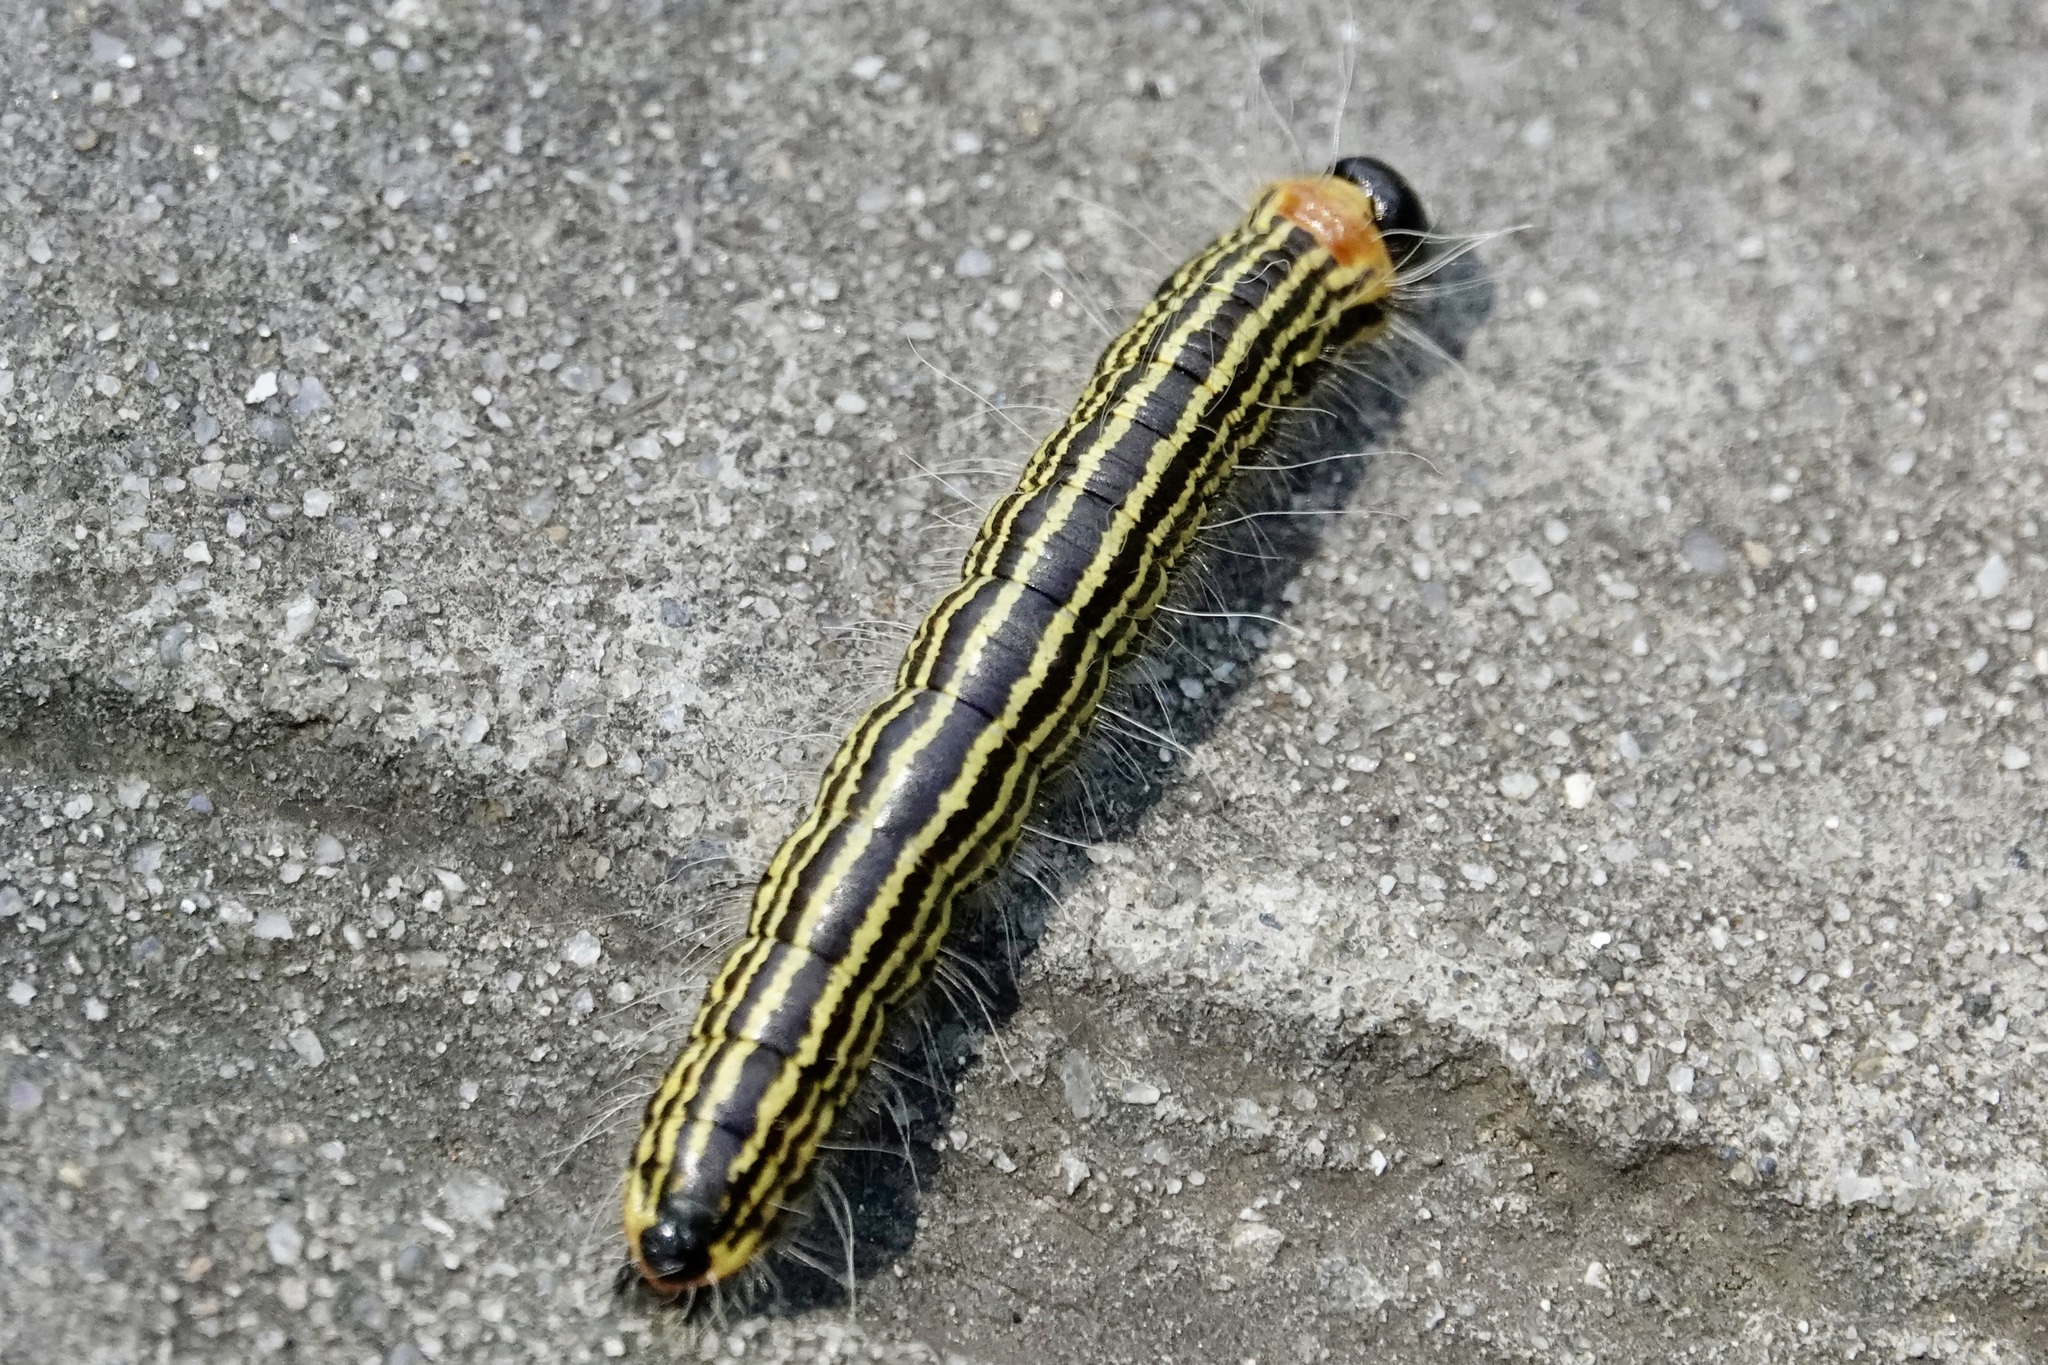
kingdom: Animalia
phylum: Arthropoda
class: Insecta
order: Lepidoptera
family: Notodontidae
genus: Datana
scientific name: Datana ministra
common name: Yellow-necked caterpillar moth
